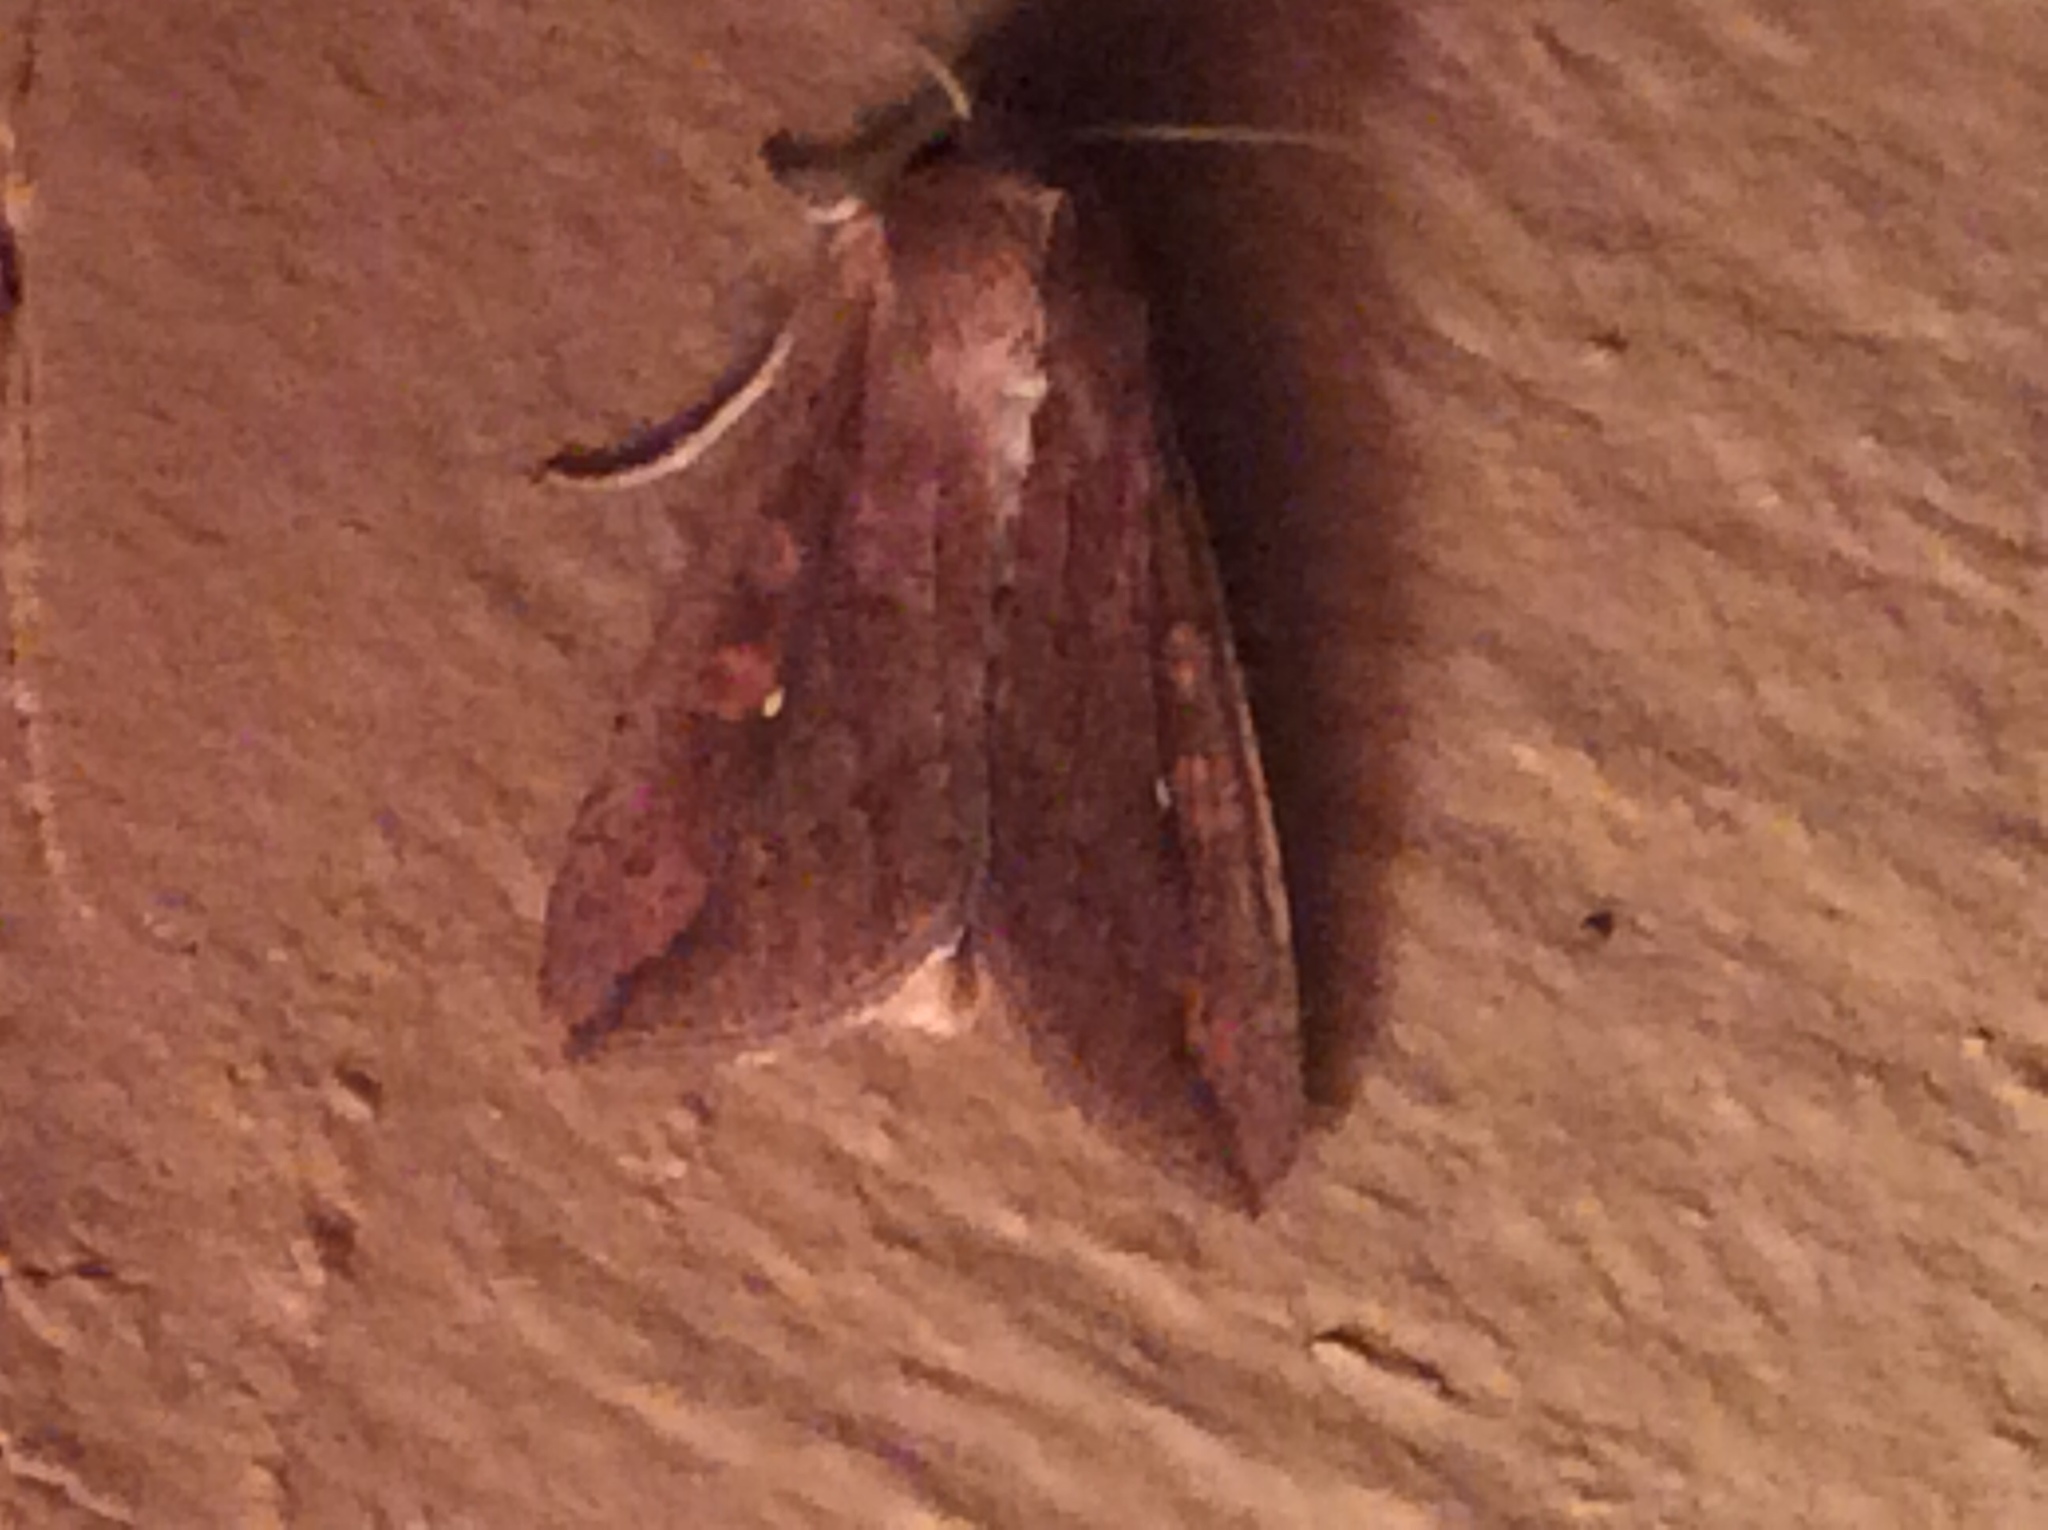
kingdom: Animalia
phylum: Arthropoda
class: Insecta
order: Lepidoptera
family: Noctuidae
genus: Mythimna
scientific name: Mythimna unipuncta
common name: White-speck
